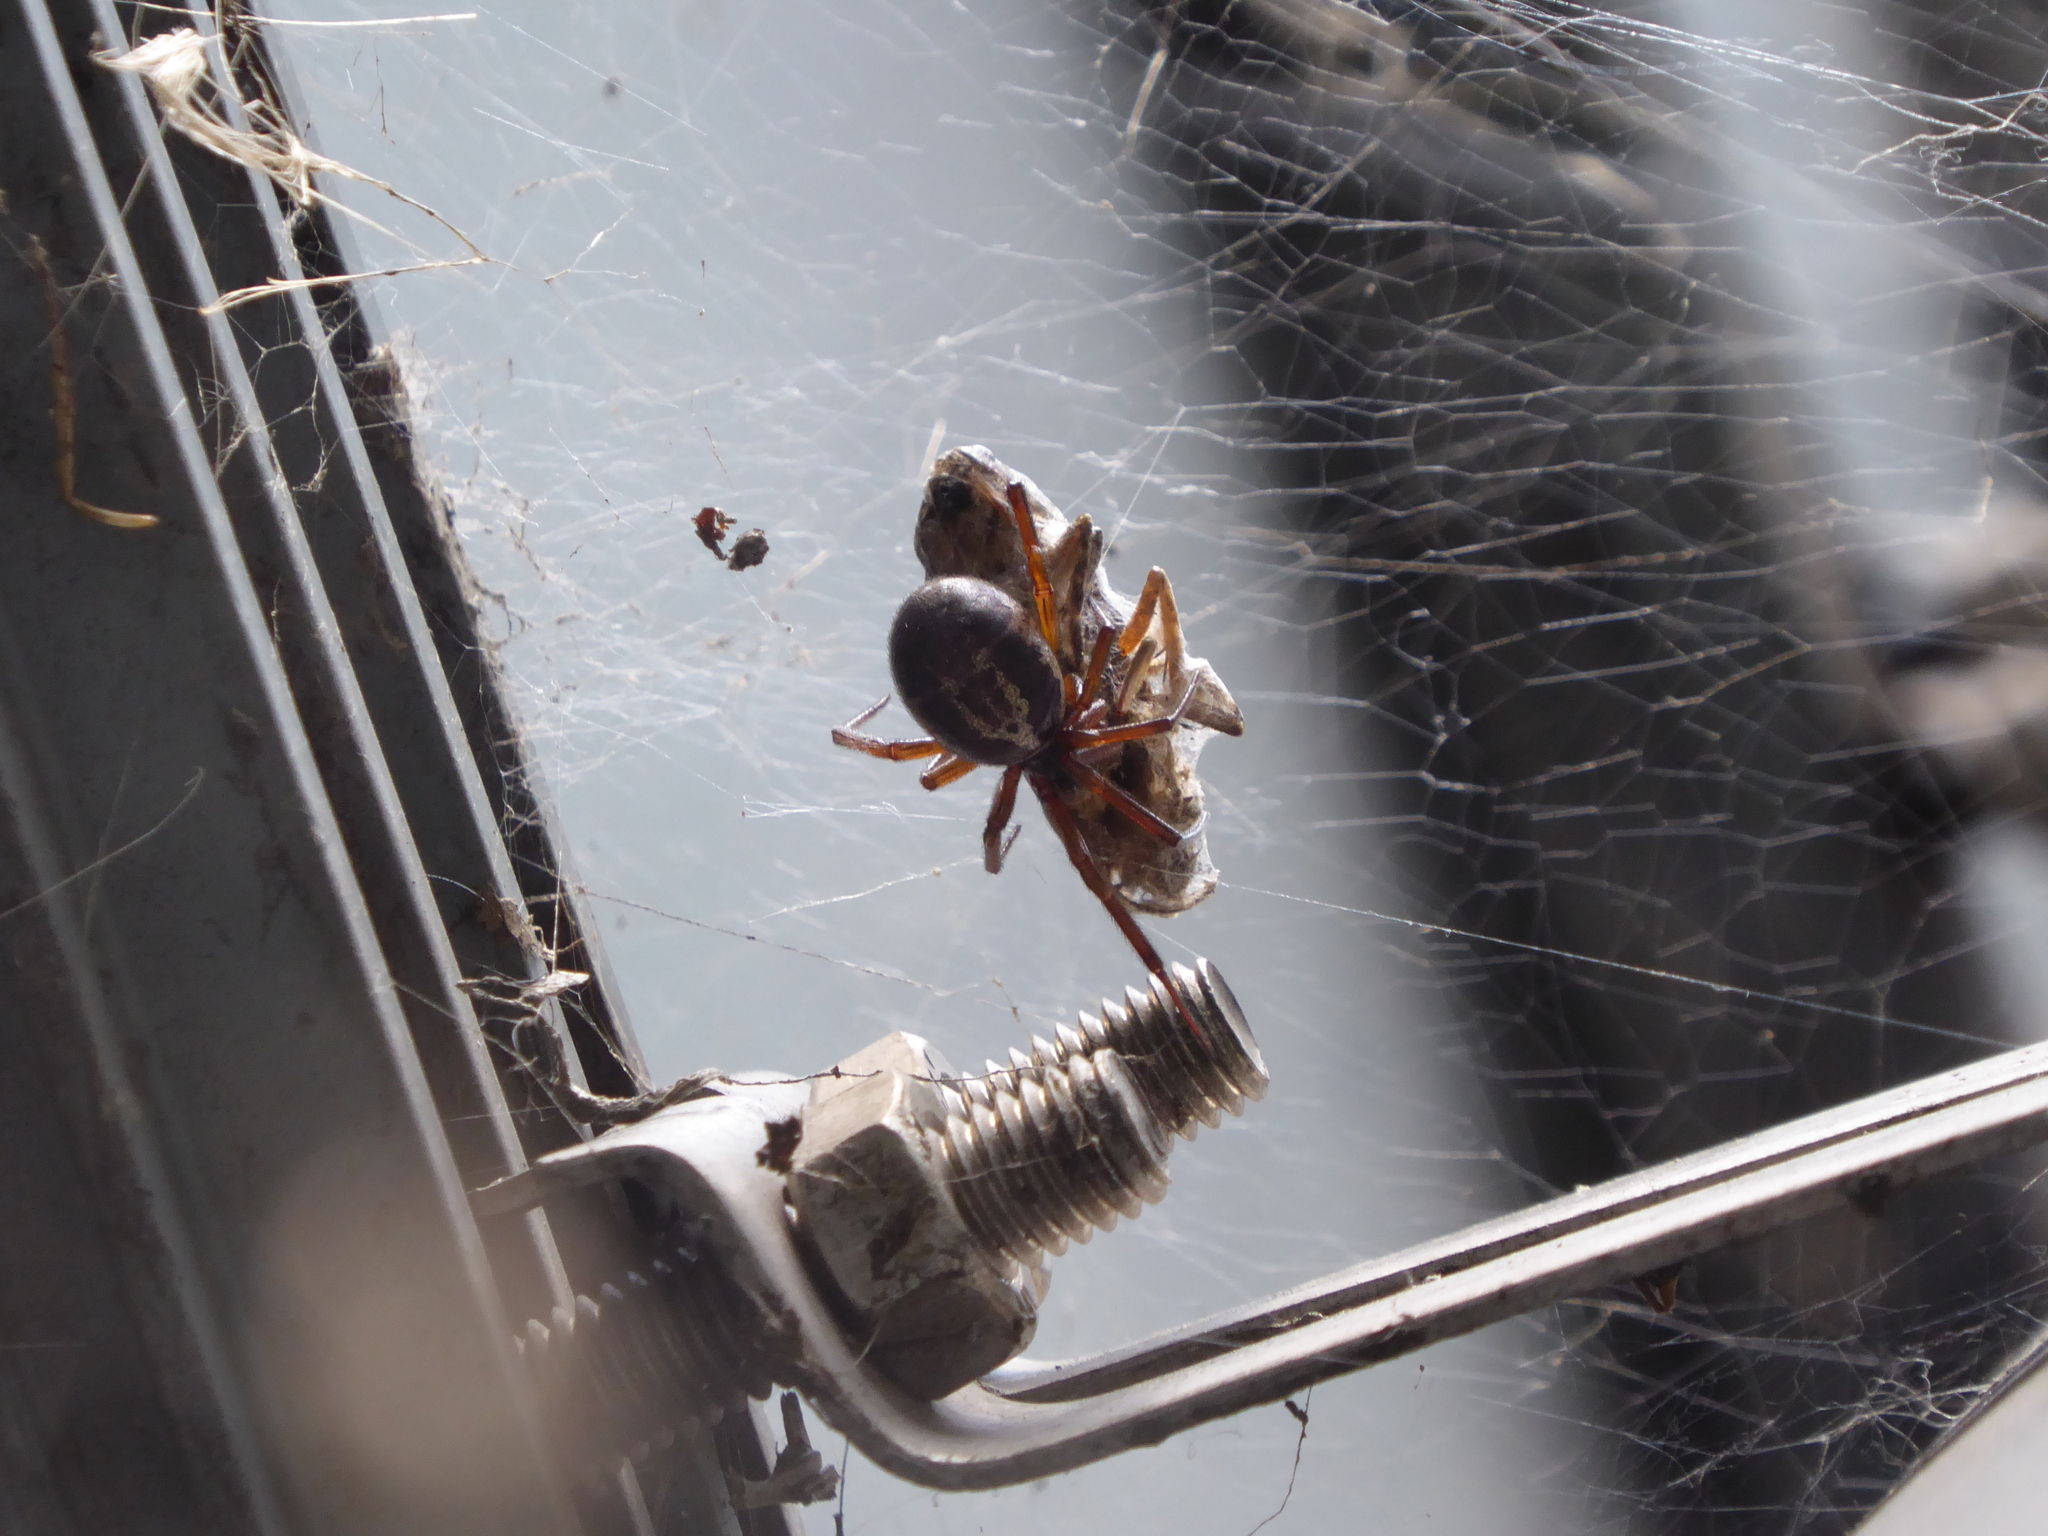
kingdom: Animalia
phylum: Arthropoda
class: Arachnida
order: Araneae
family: Theridiidae
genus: Steatoda
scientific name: Steatoda nobilis
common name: Cobweb weaver
